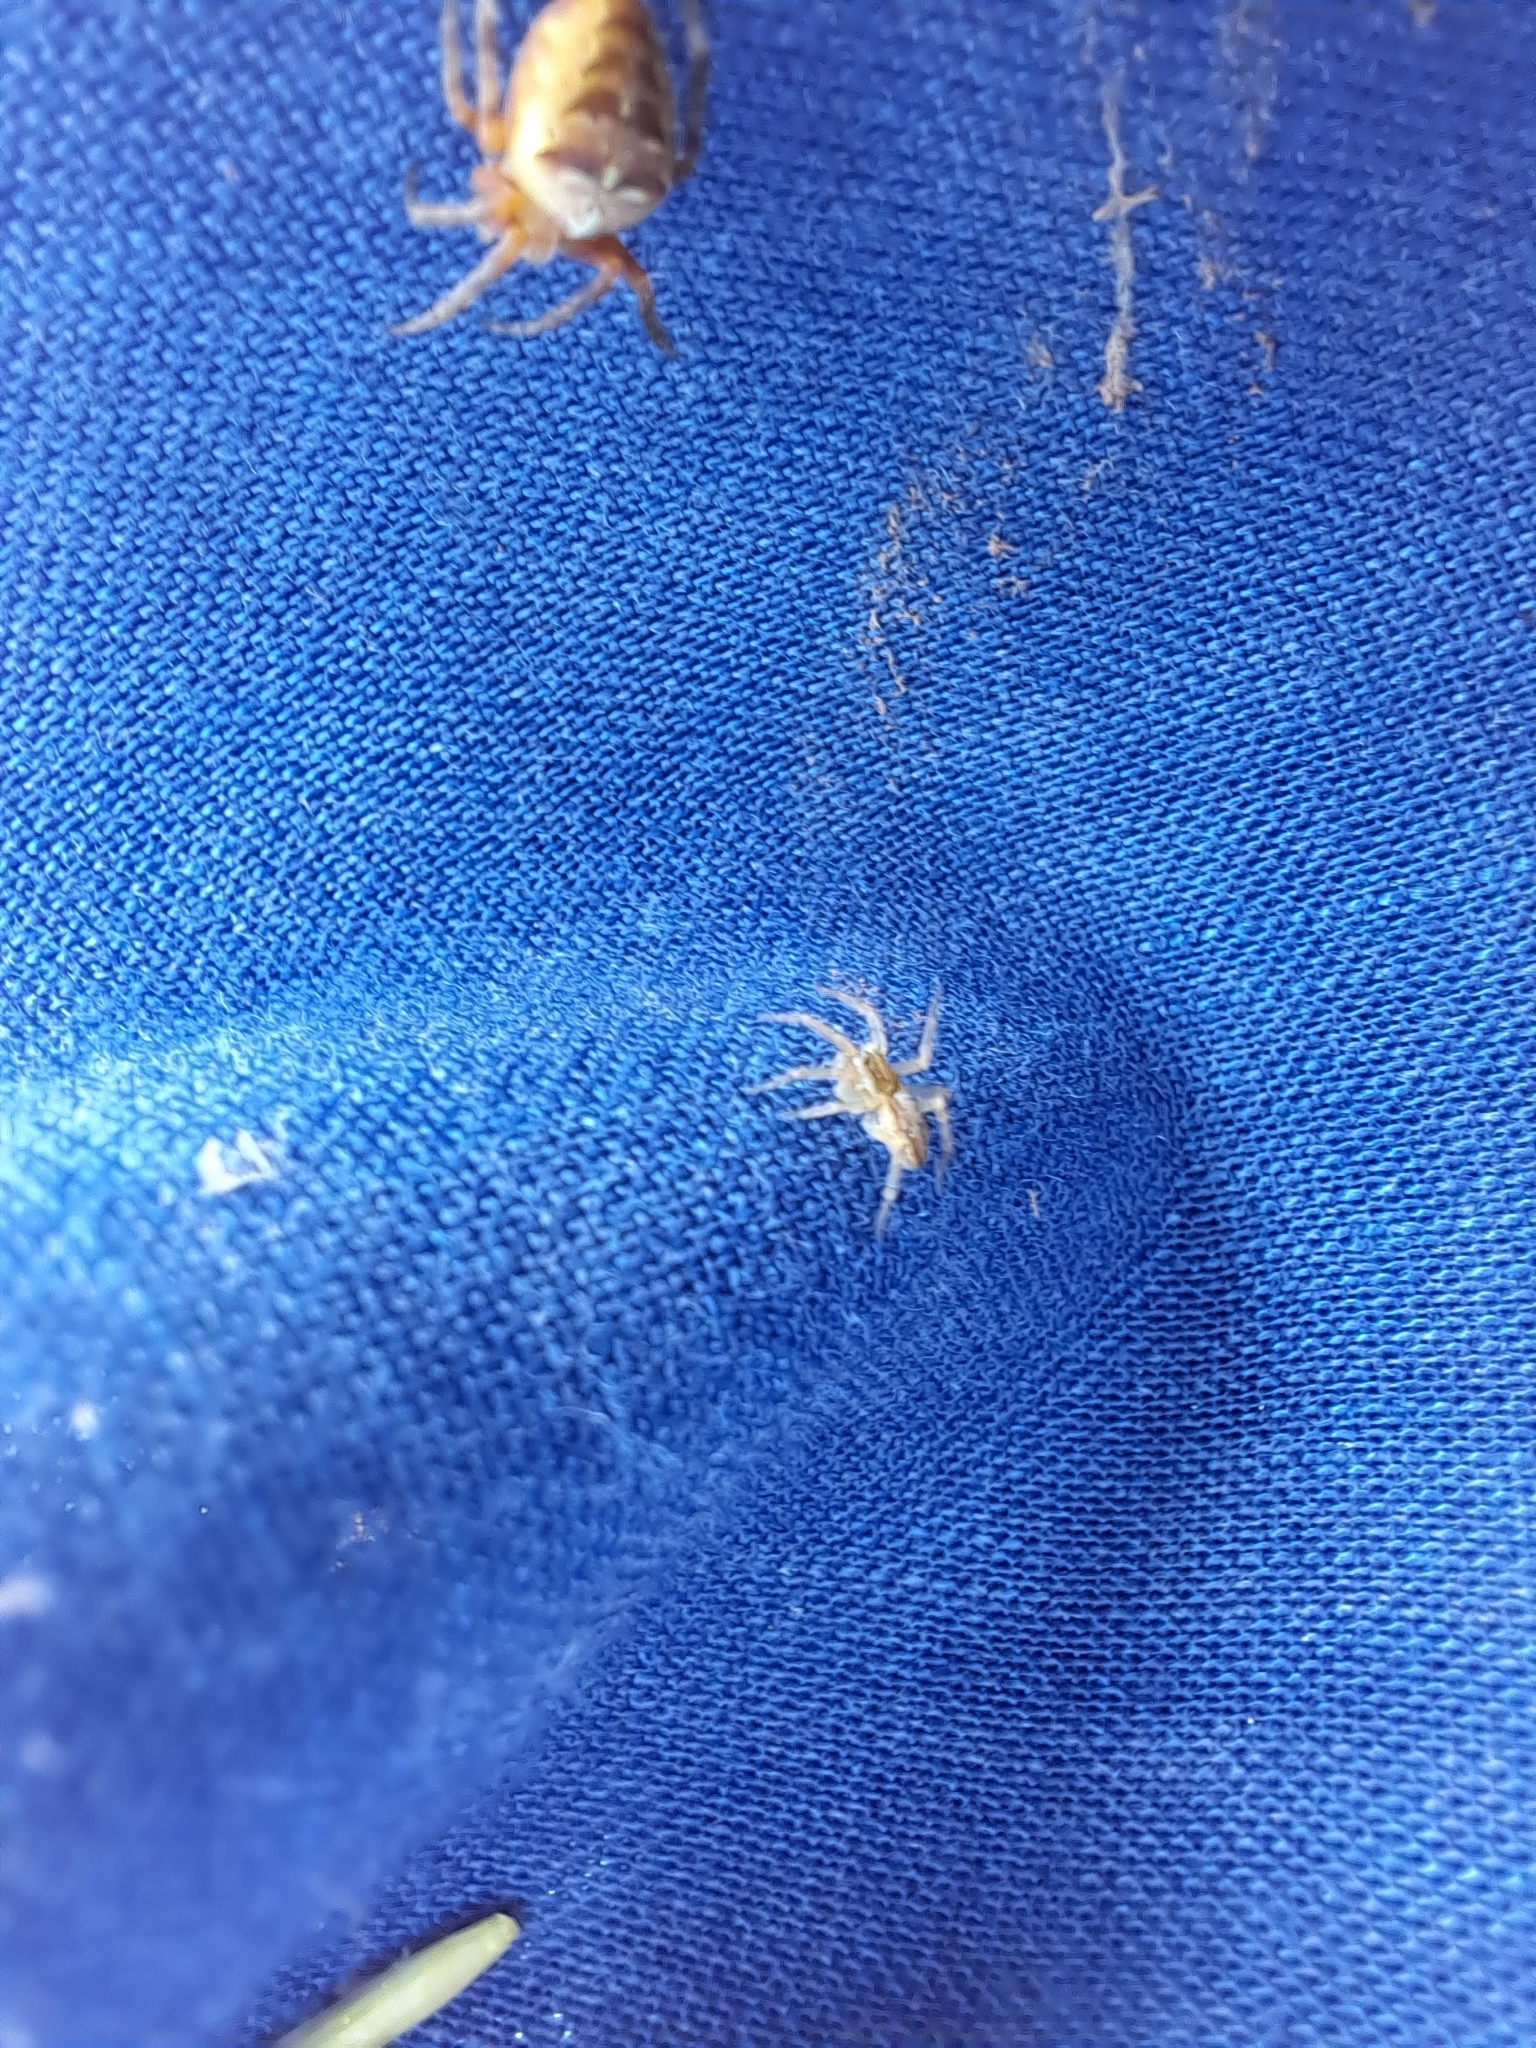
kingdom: Animalia
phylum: Arthropoda
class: Arachnida
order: Araneae
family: Araneidae
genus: Araneus
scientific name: Araneus diadematus
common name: Cross orbweaver
